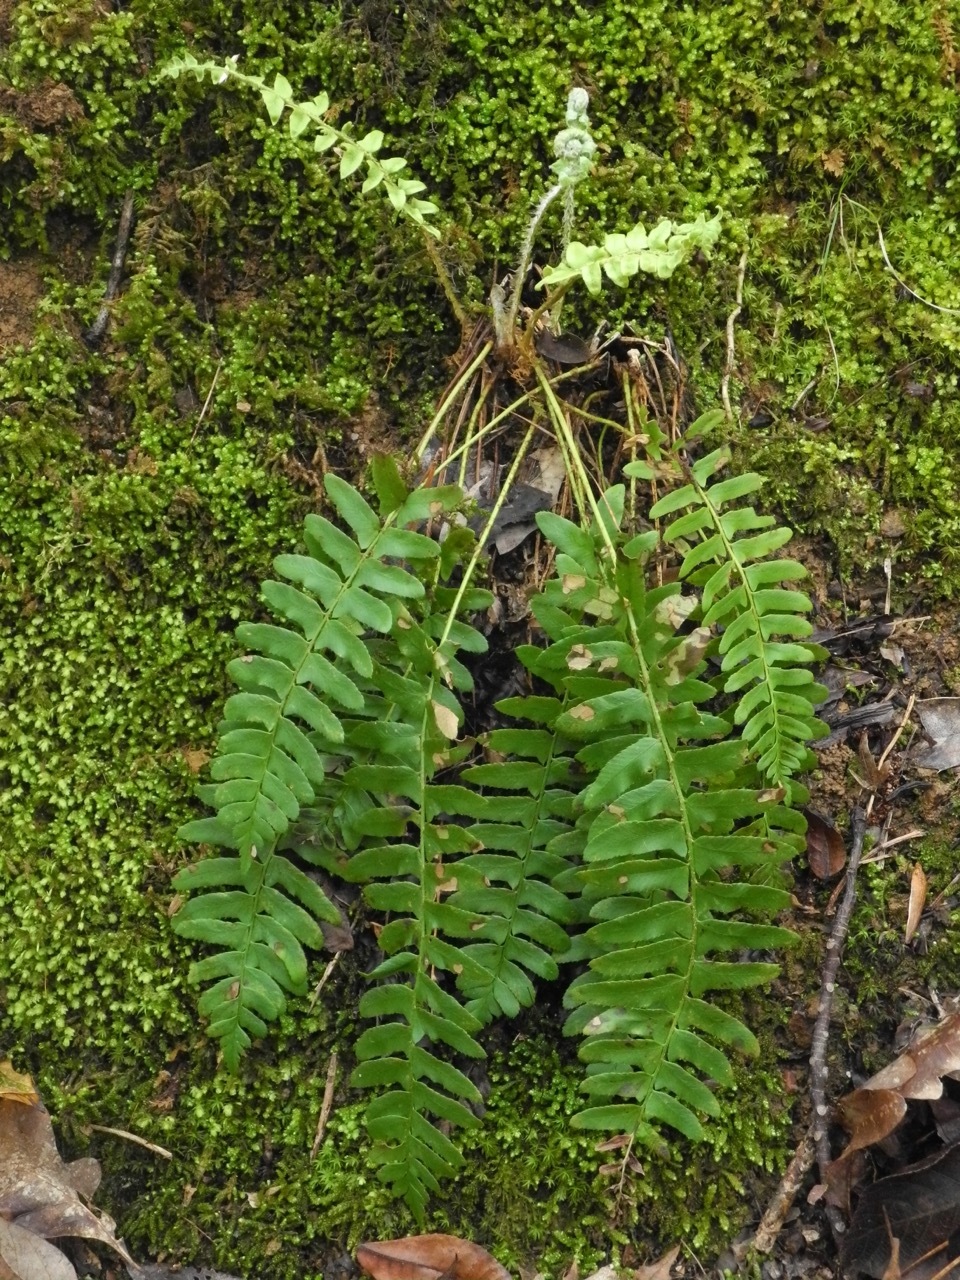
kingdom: Plantae
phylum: Tracheophyta
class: Polypodiopsida
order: Polypodiales
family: Dryopteridaceae
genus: Polystichum
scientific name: Polystichum acrostichoides
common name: Christmas fern
